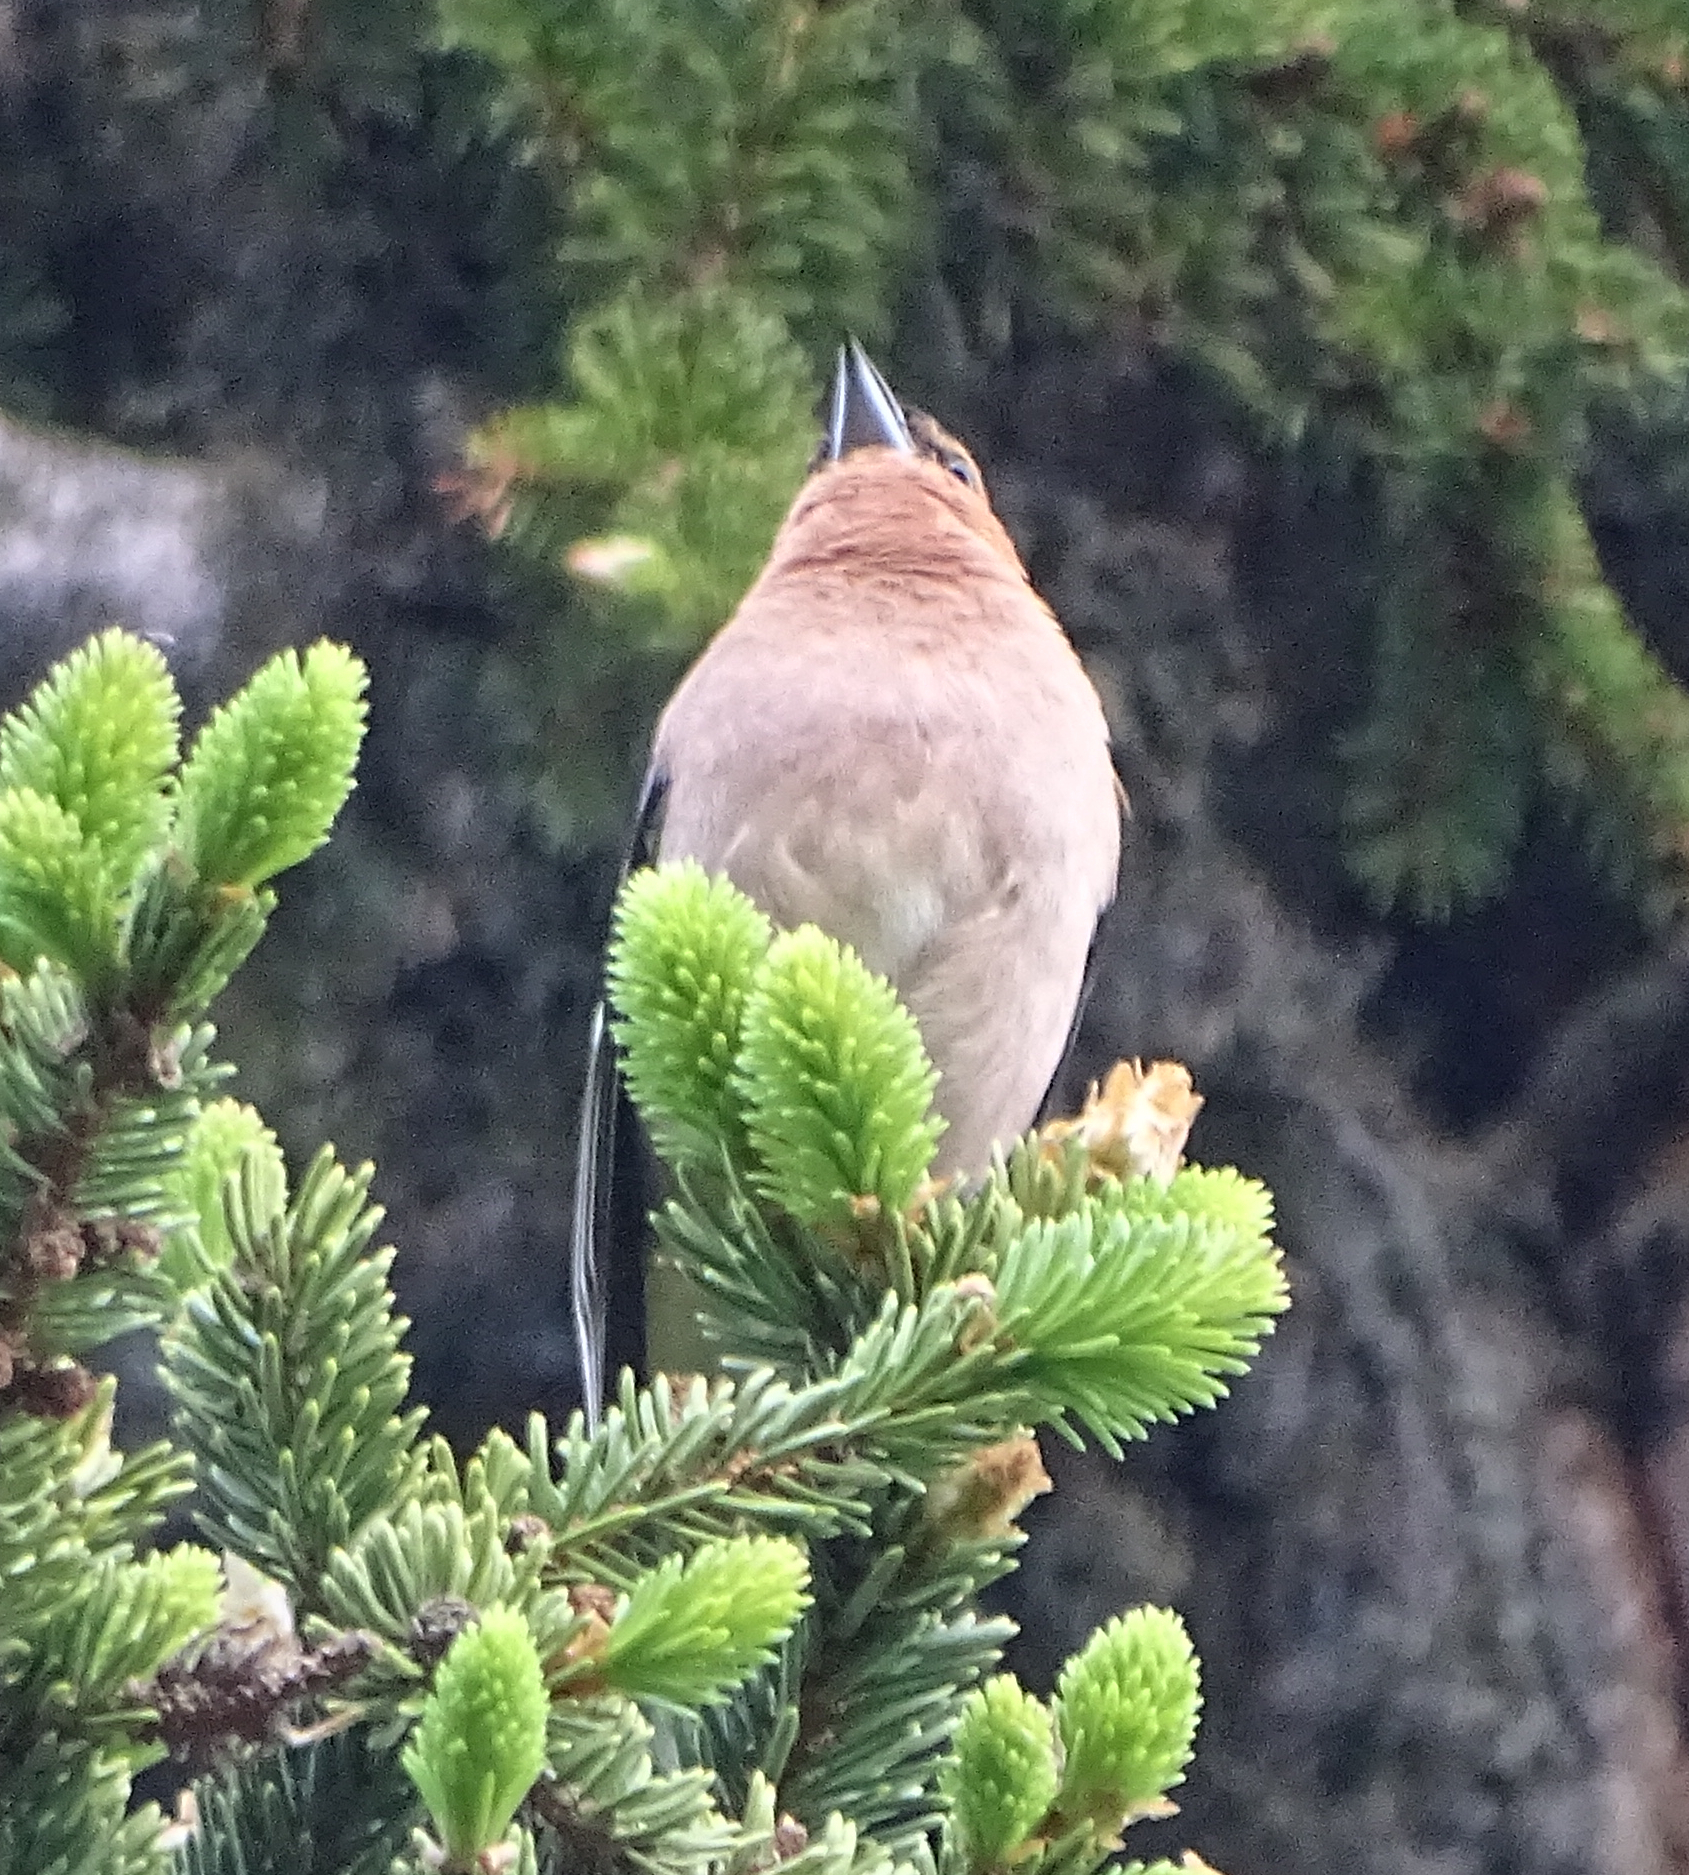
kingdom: Animalia
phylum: Chordata
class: Aves
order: Passeriformes
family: Fringillidae
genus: Fringilla
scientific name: Fringilla coelebs
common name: Common chaffinch
